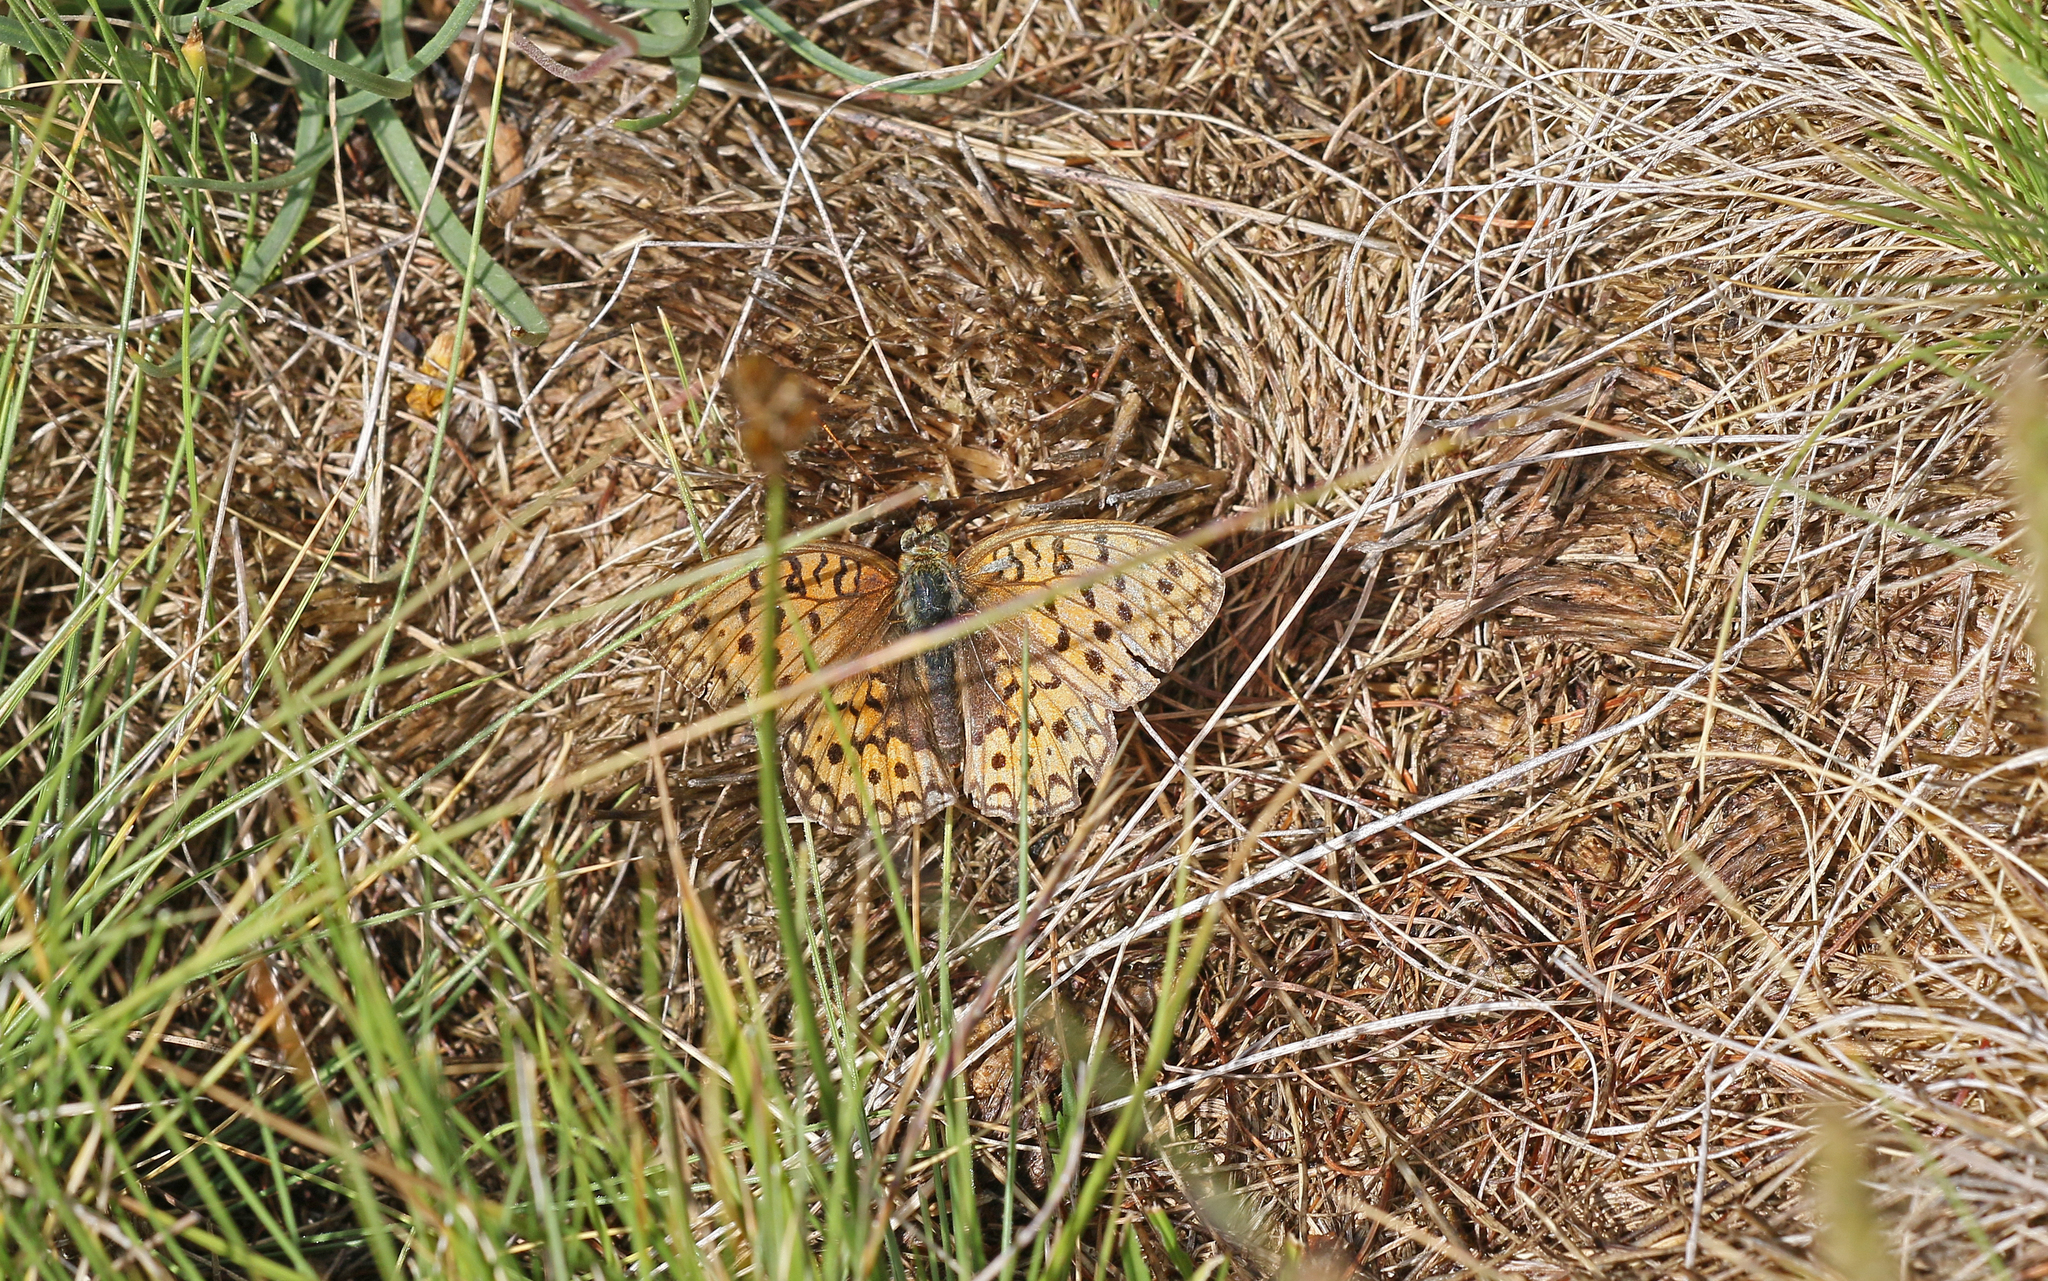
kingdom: Animalia
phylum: Arthropoda
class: Insecta
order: Lepidoptera
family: Nymphalidae
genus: Fabriciana
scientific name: Fabriciana niobe
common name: Niobe fritillary
